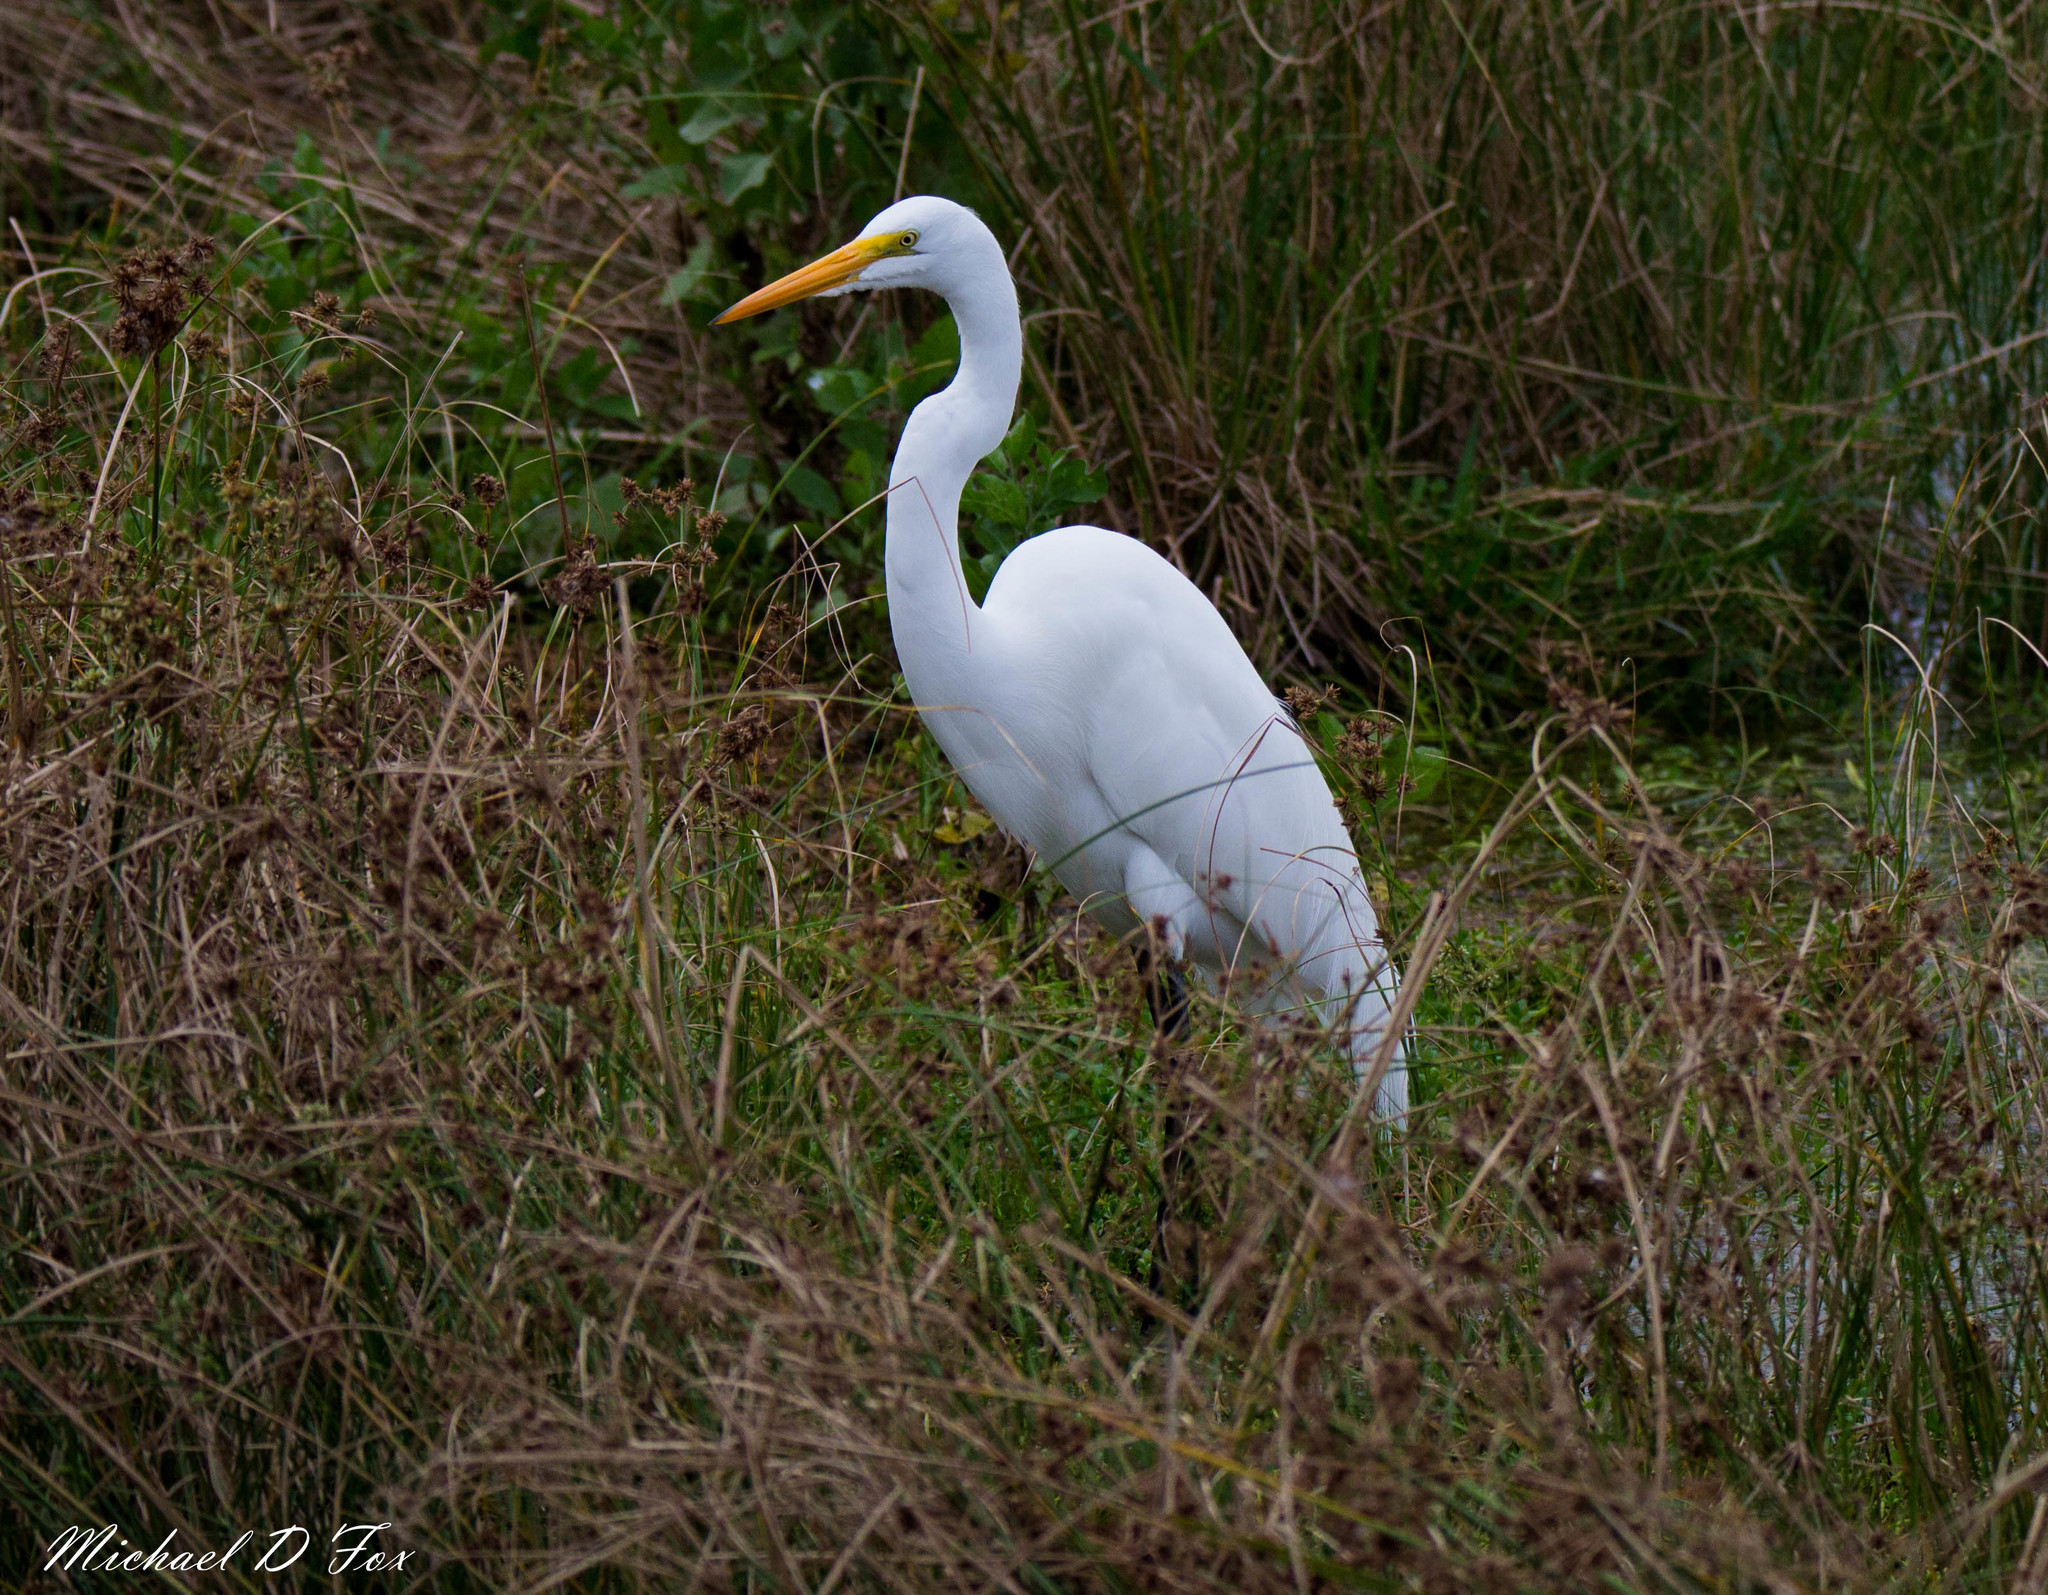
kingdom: Animalia
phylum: Chordata
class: Aves
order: Pelecaniformes
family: Ardeidae
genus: Ardea
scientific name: Ardea alba
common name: Great egret
